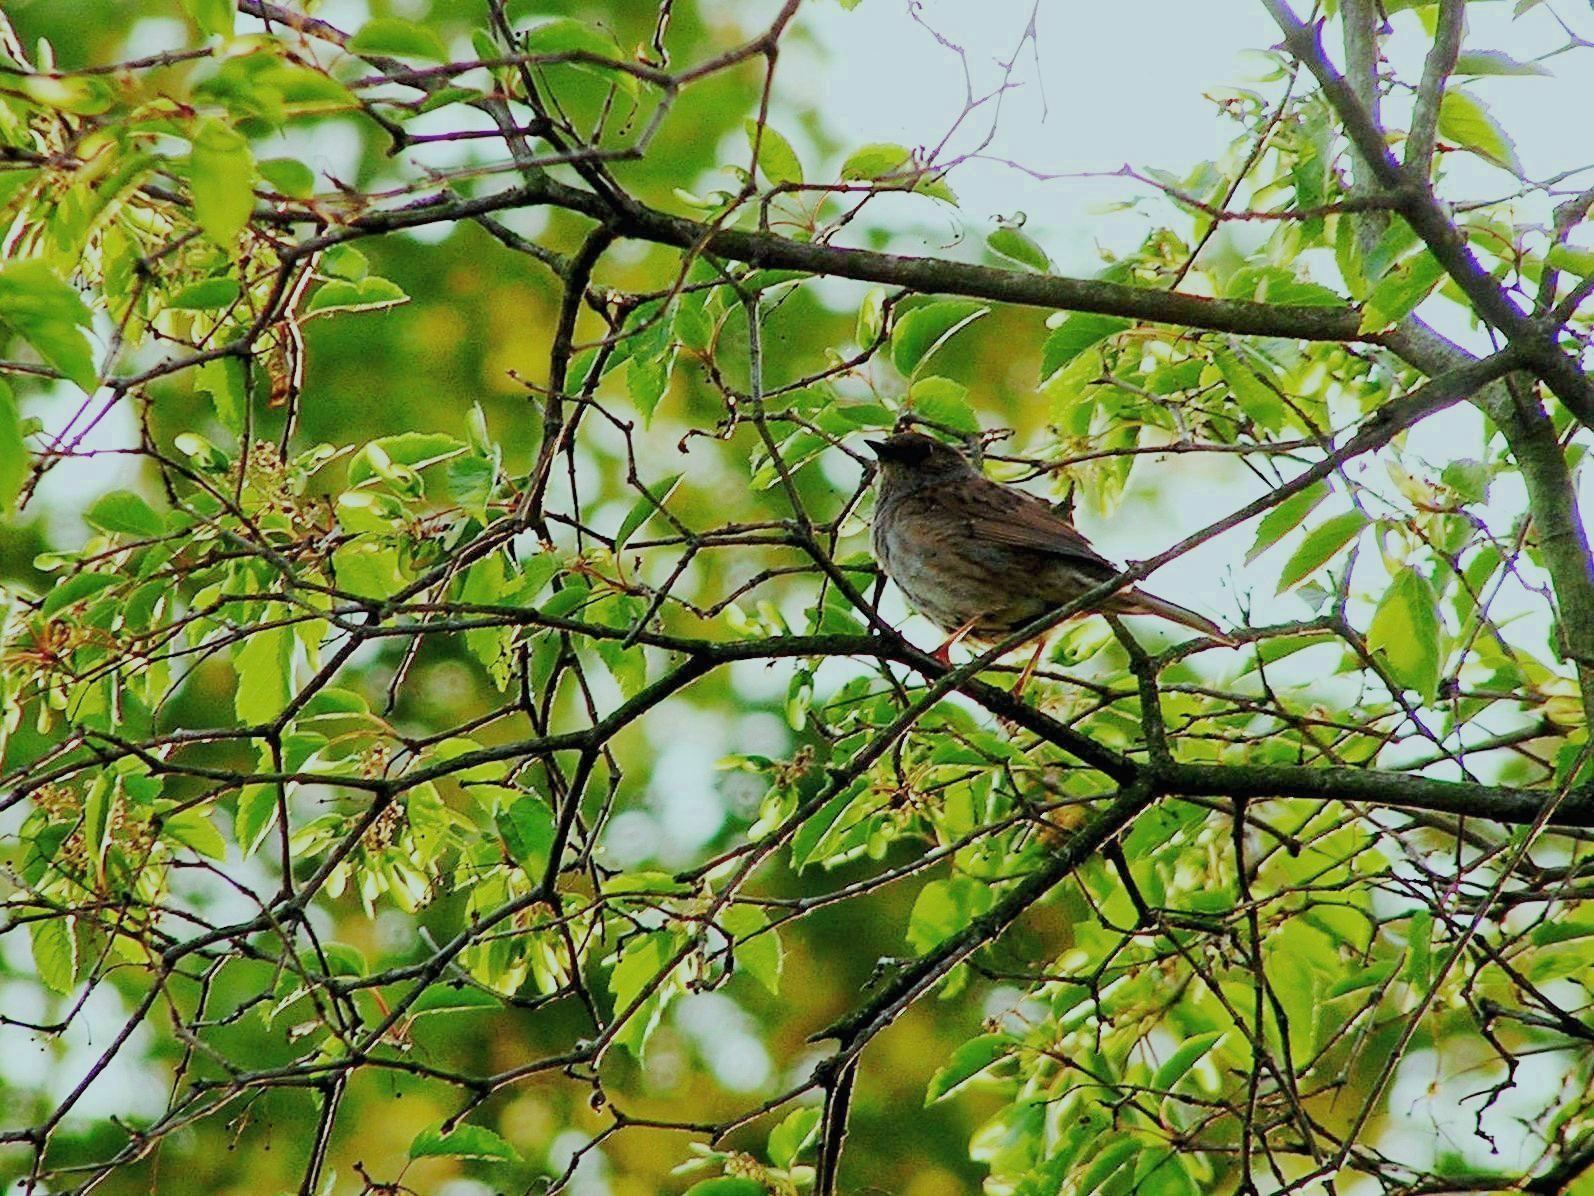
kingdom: Animalia
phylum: Chordata
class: Aves
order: Passeriformes
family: Prunellidae
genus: Prunella
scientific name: Prunella modularis
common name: Dunnock
